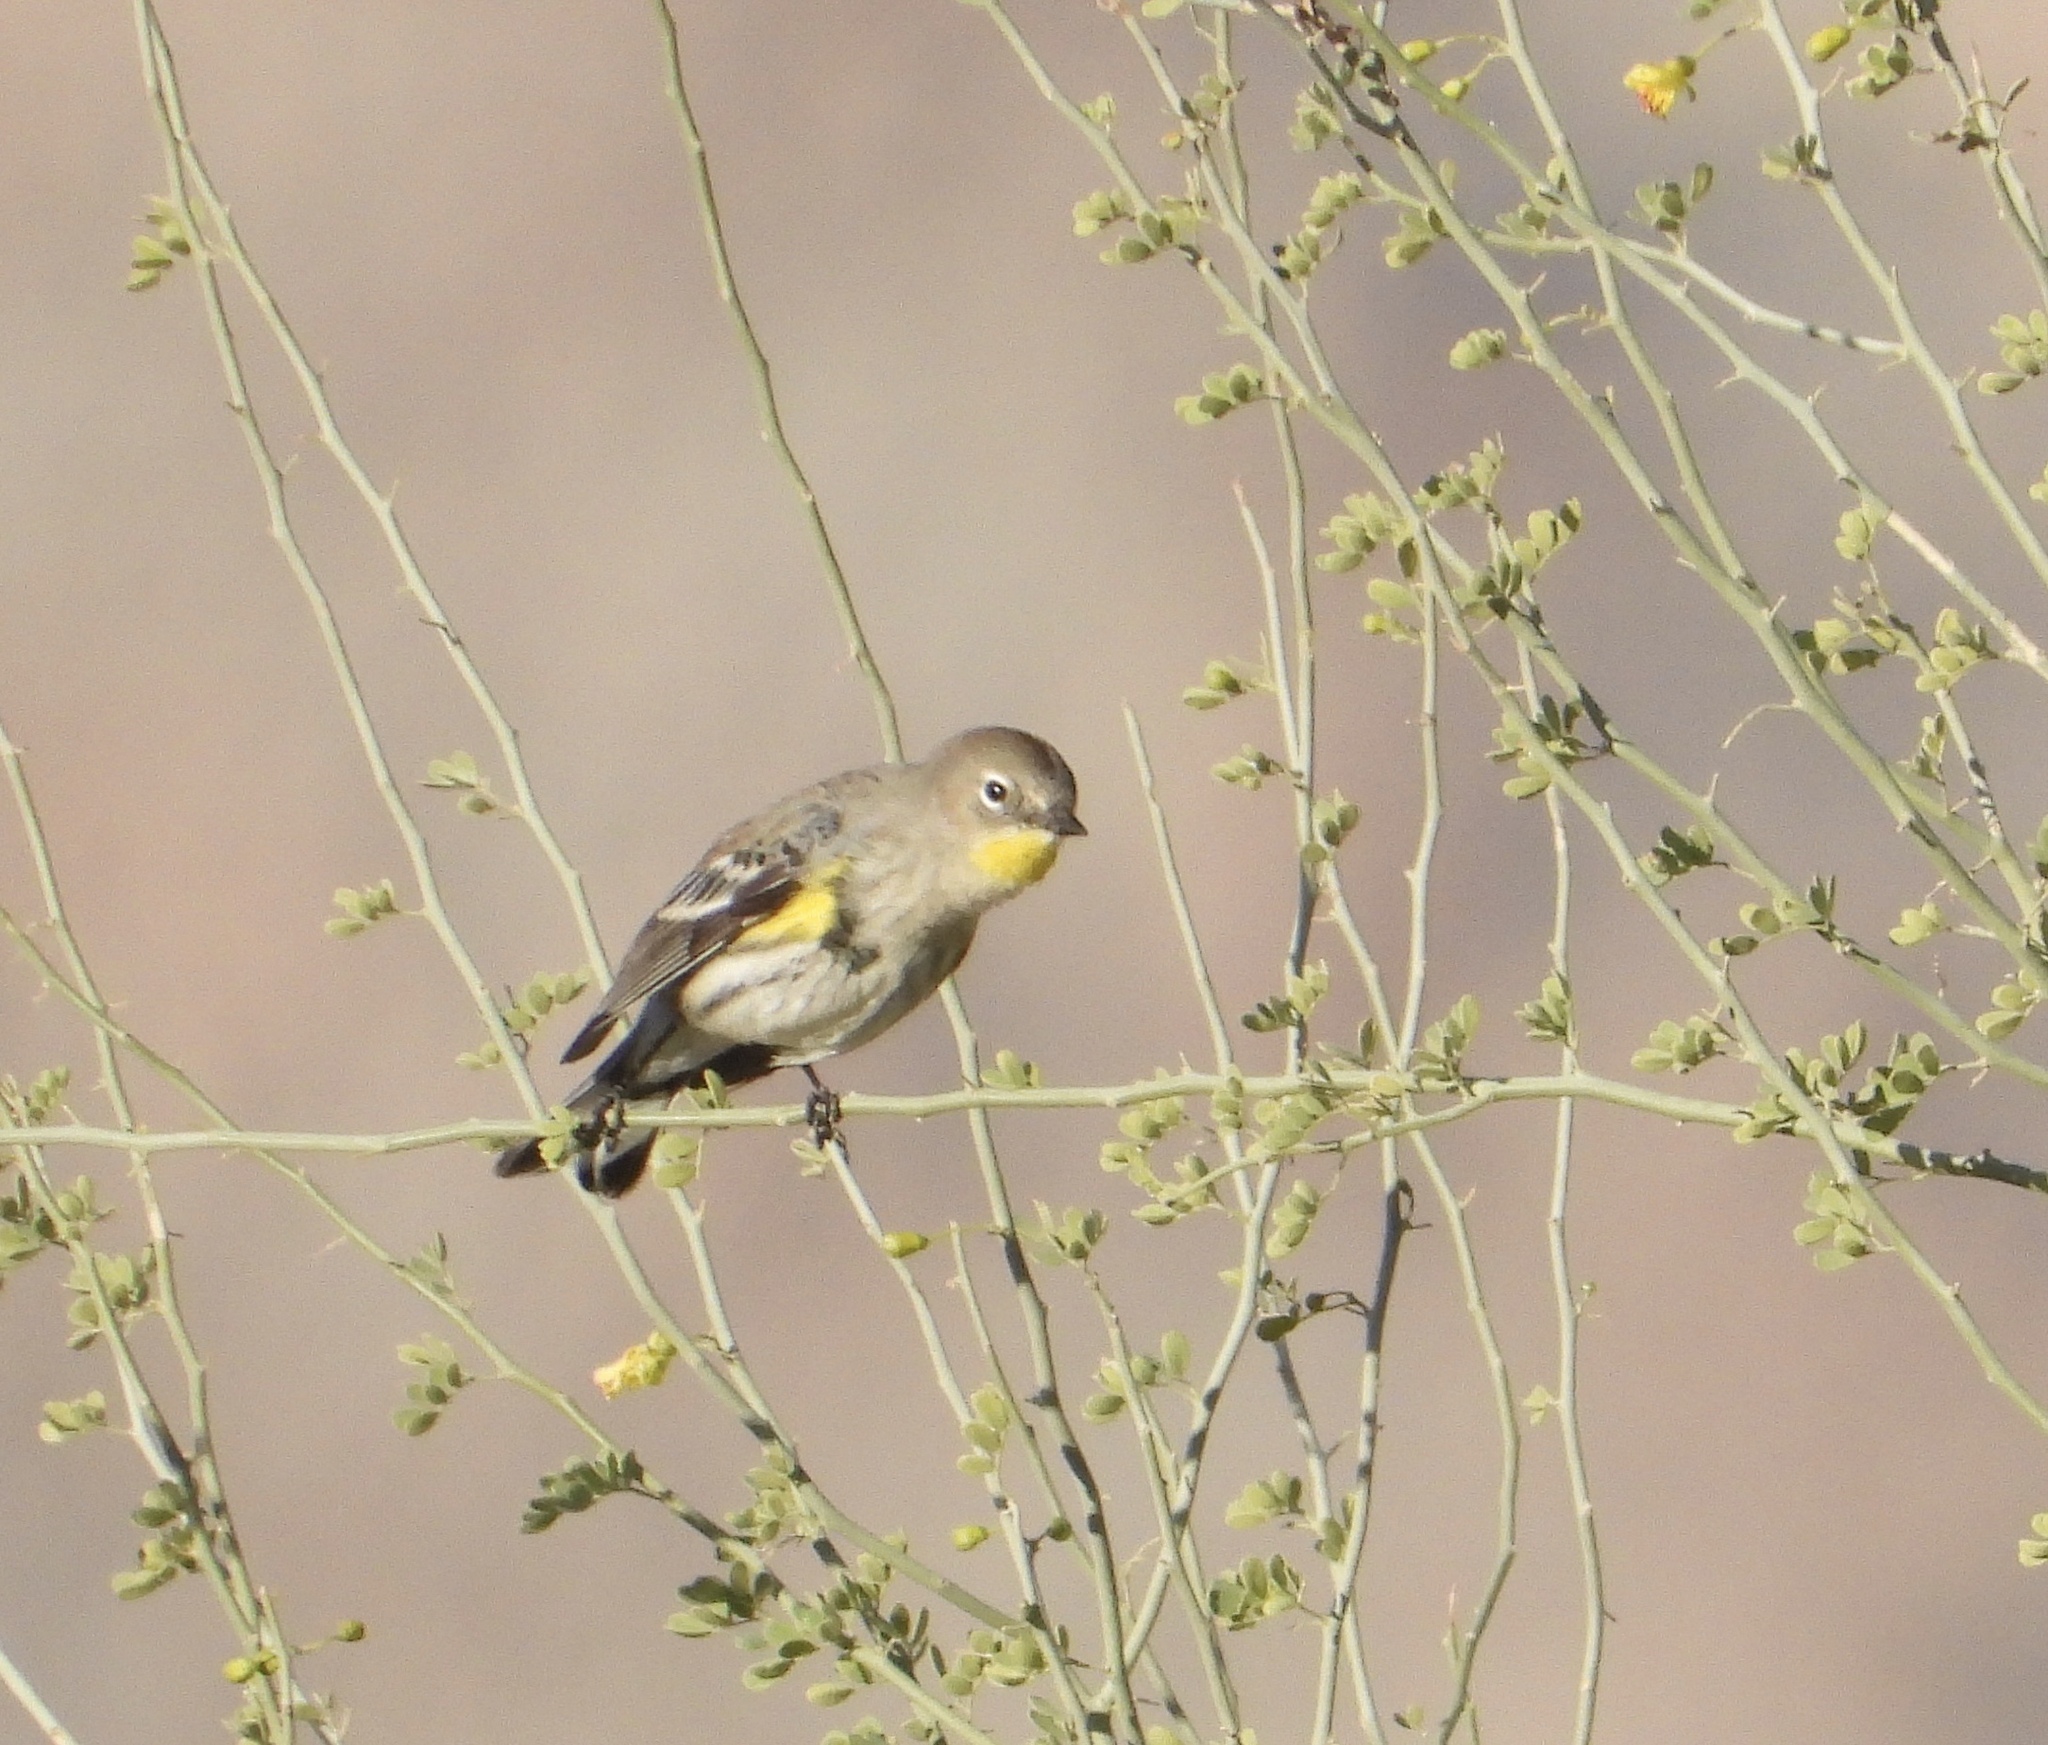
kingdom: Animalia
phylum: Chordata
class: Aves
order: Passeriformes
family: Parulidae
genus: Setophaga
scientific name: Setophaga coronata
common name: Myrtle warbler
